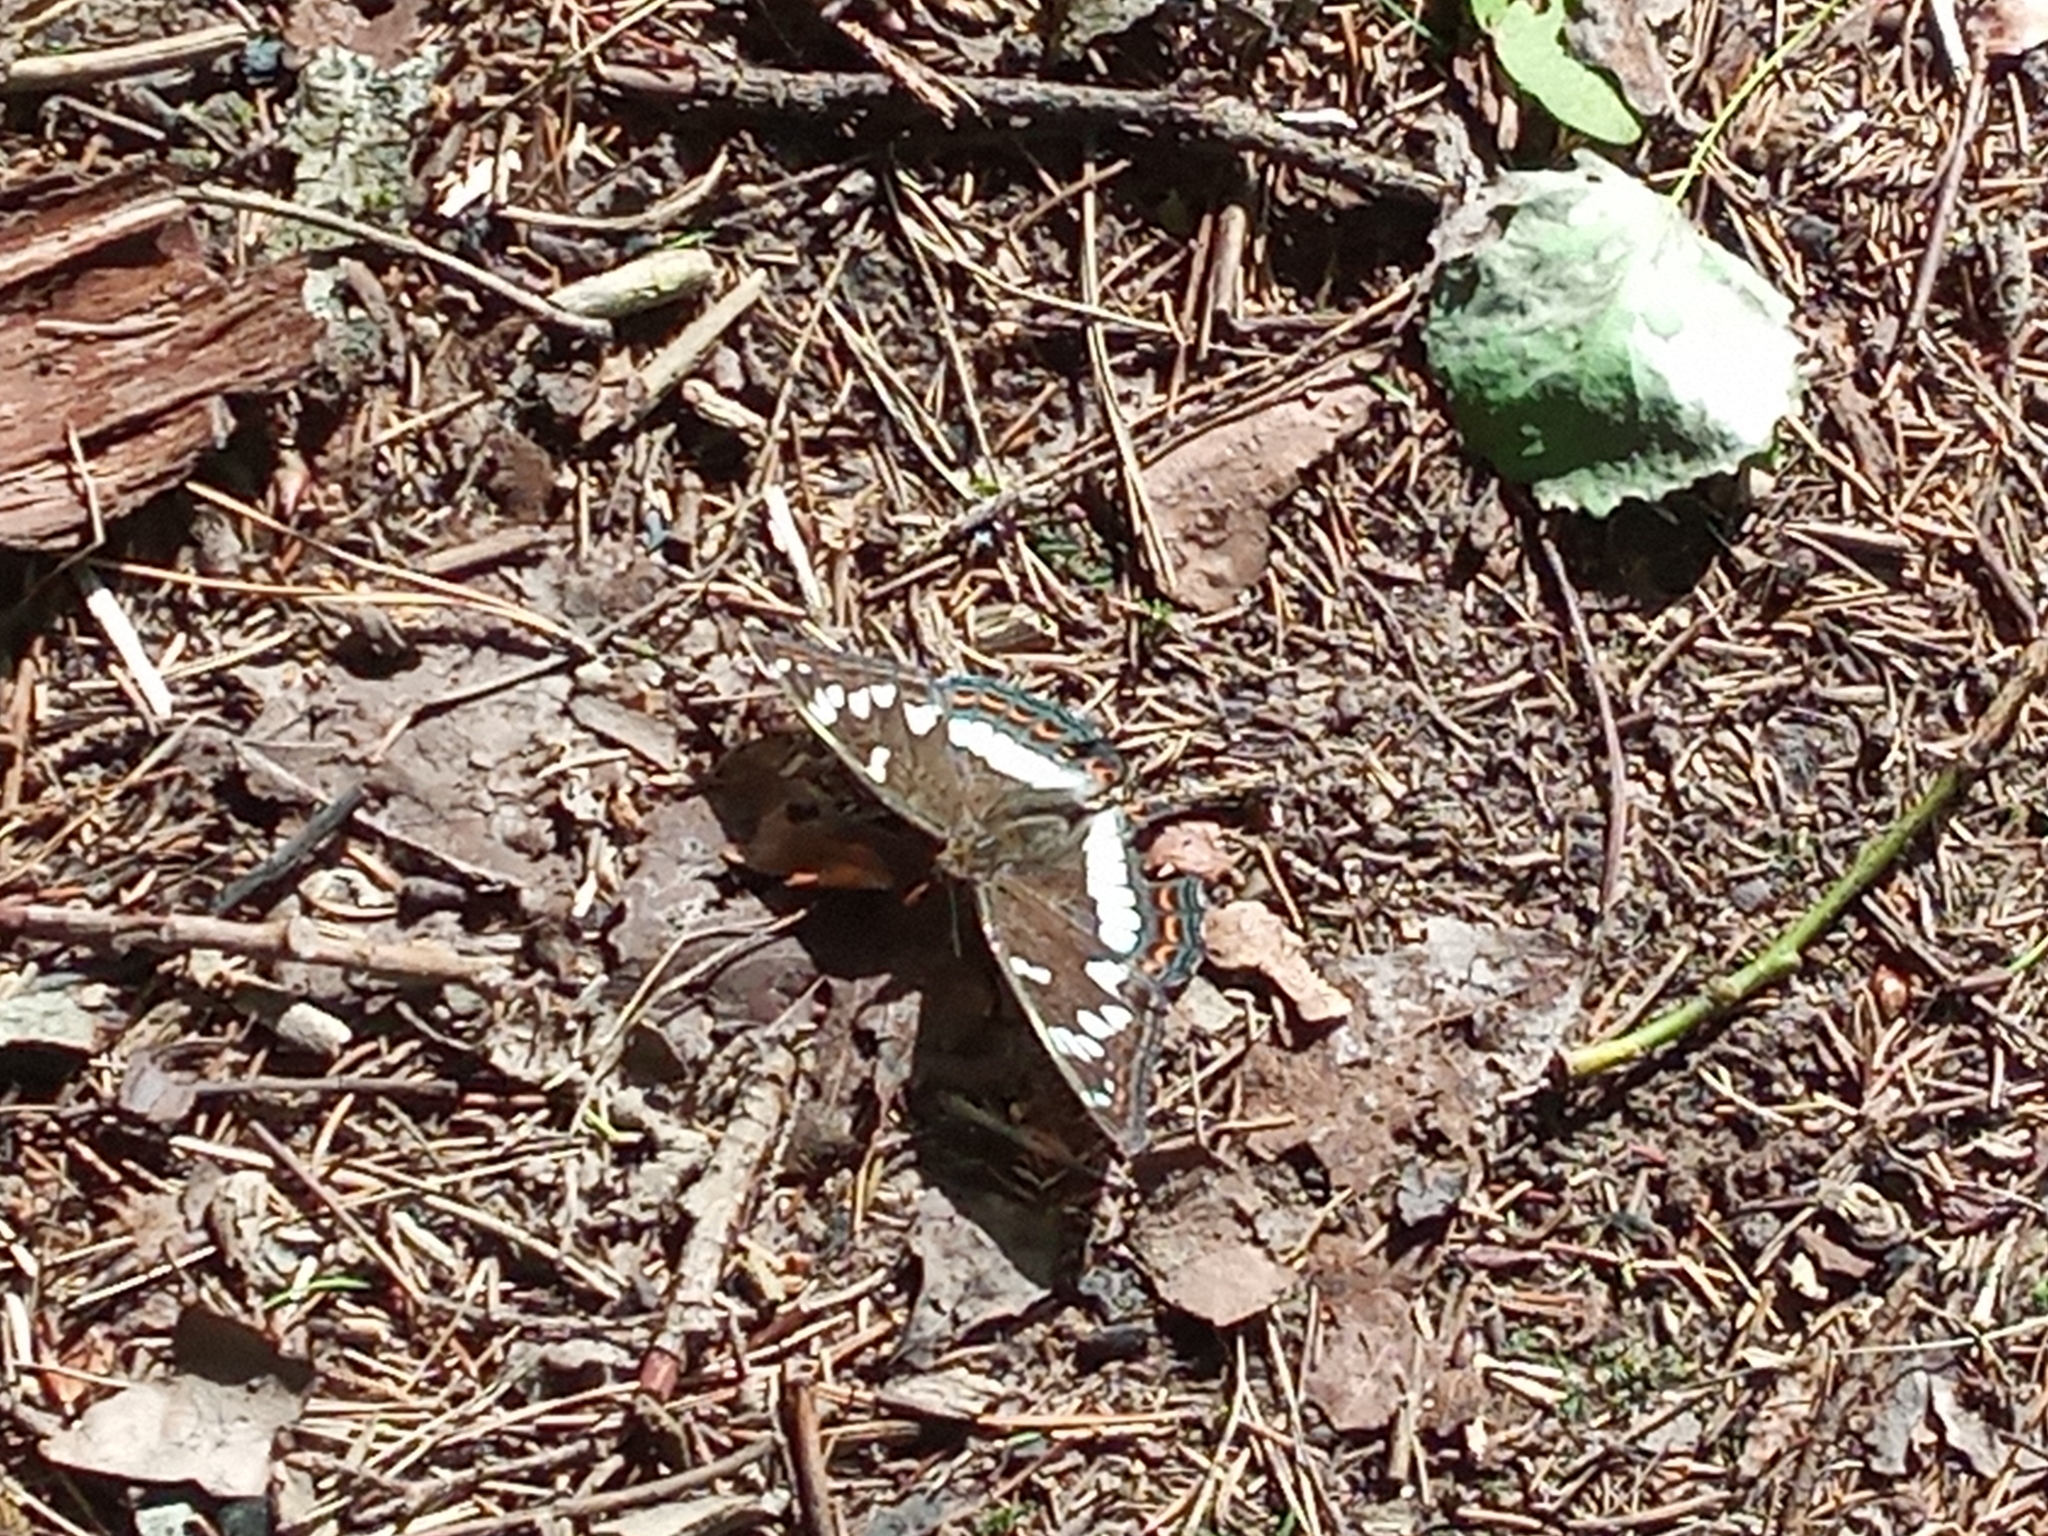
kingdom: Animalia
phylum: Arthropoda
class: Insecta
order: Lepidoptera
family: Nymphalidae
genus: Limenitis
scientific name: Limenitis populi
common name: Poplar admiral
